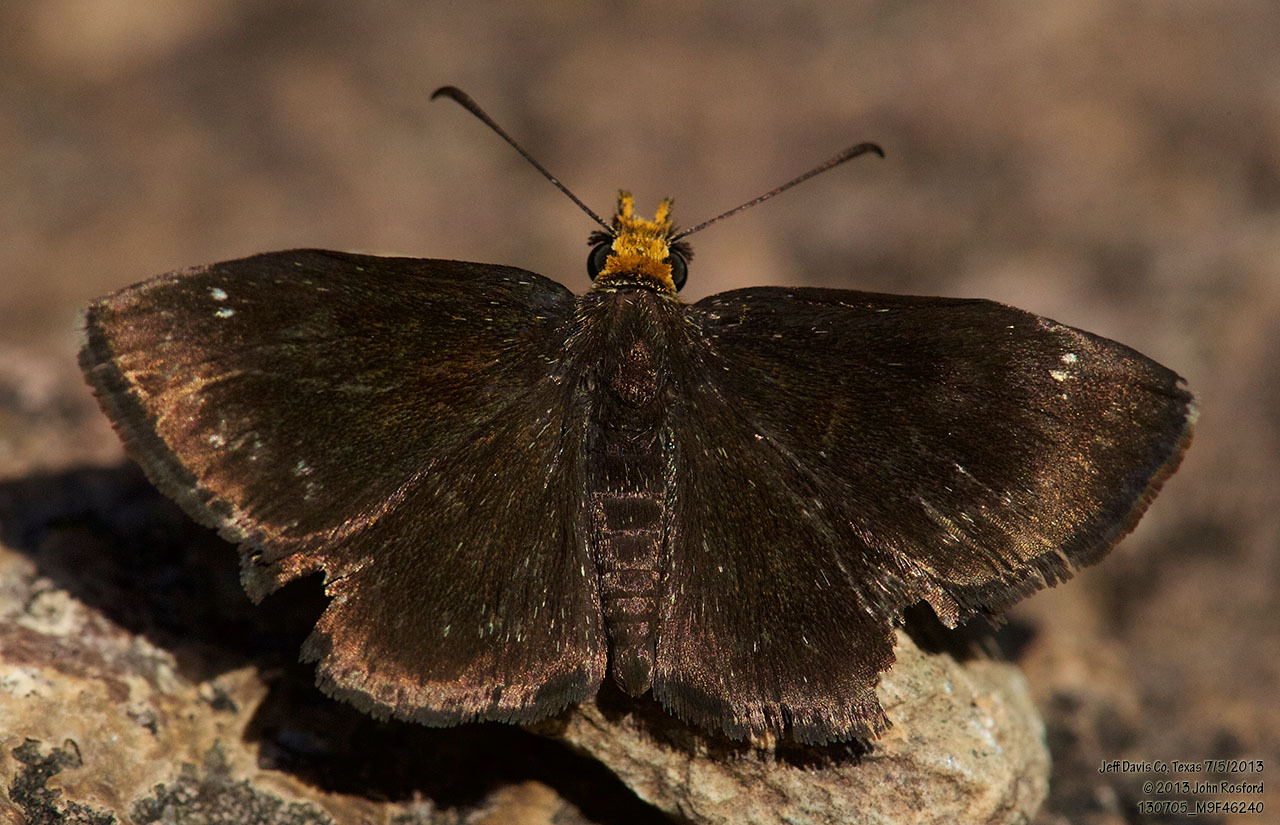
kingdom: Animalia
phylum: Arthropoda
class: Insecta
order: Lepidoptera
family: Hesperiidae
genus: Staphylus
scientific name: Staphylus ceos
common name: Golden-headed scallopwing
